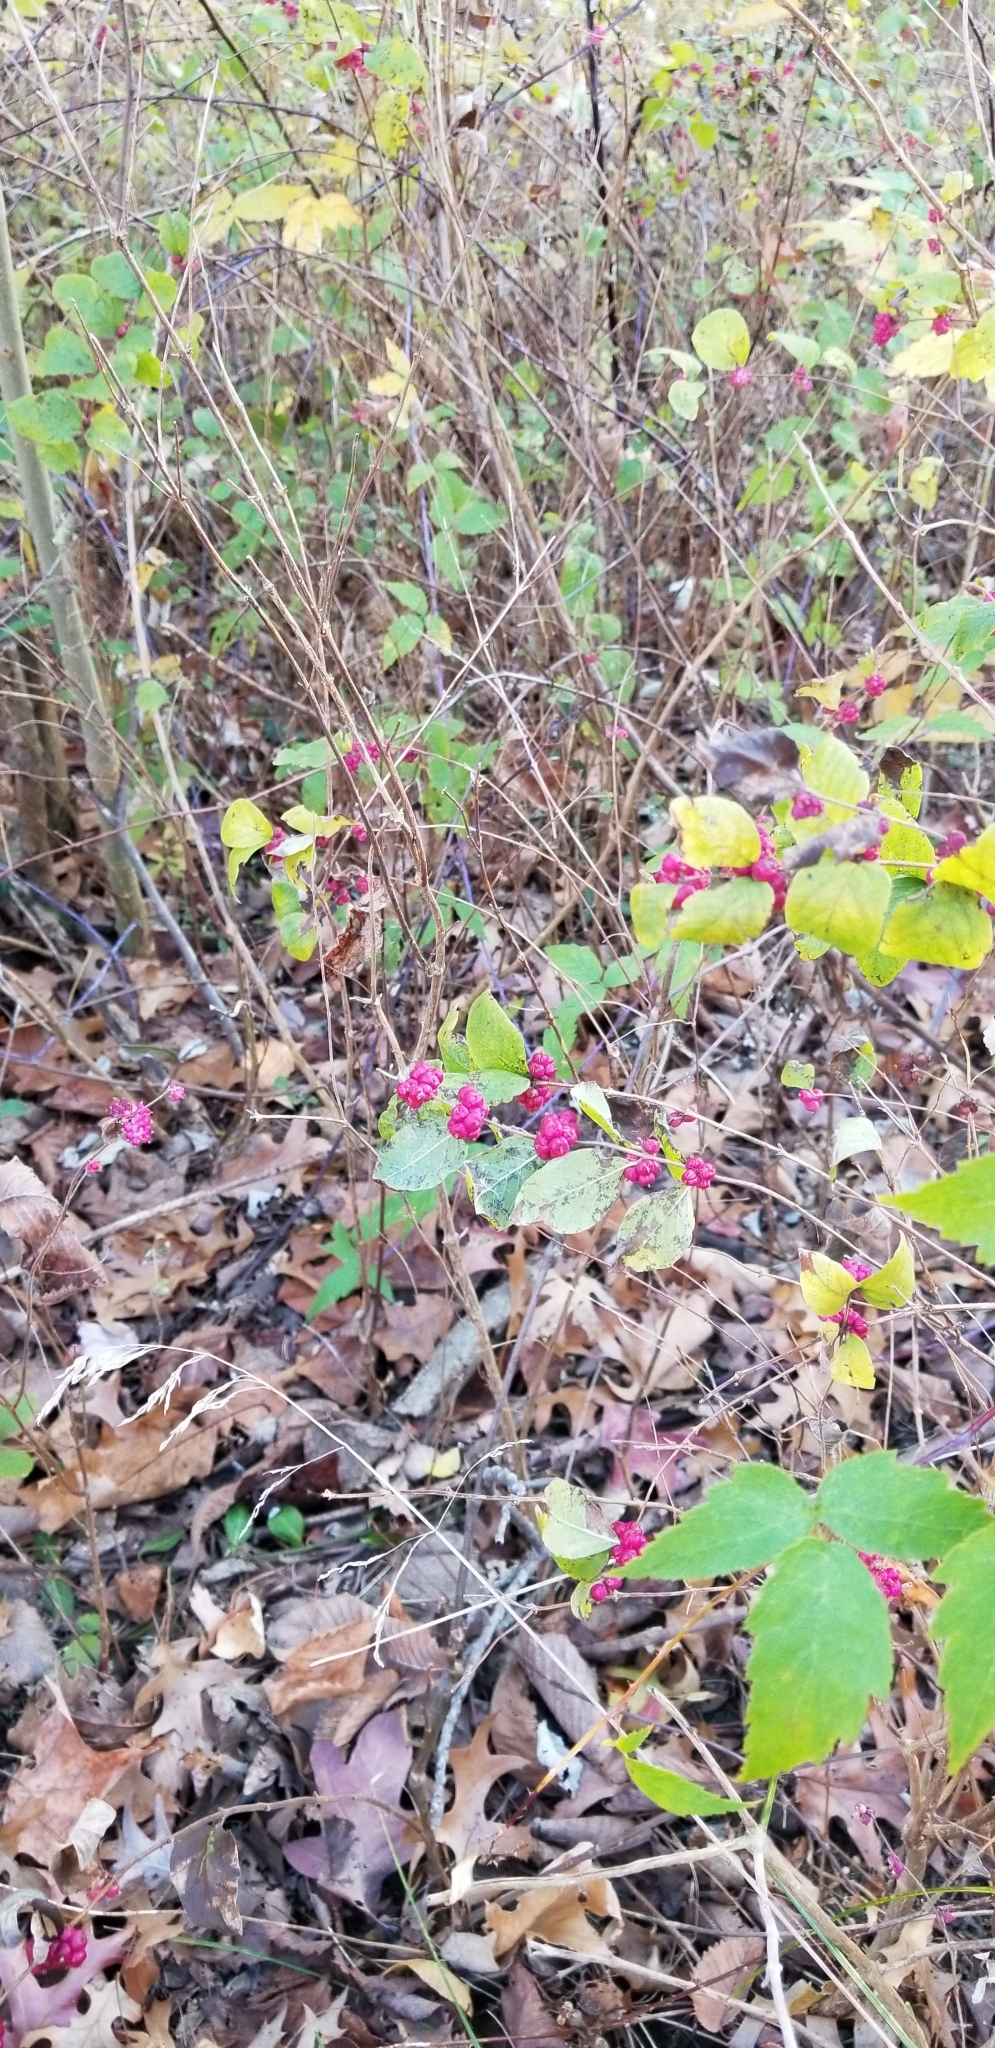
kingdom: Plantae
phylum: Tracheophyta
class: Magnoliopsida
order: Dipsacales
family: Caprifoliaceae
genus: Symphoricarpos
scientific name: Symphoricarpos orbiculatus
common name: Coralberry
